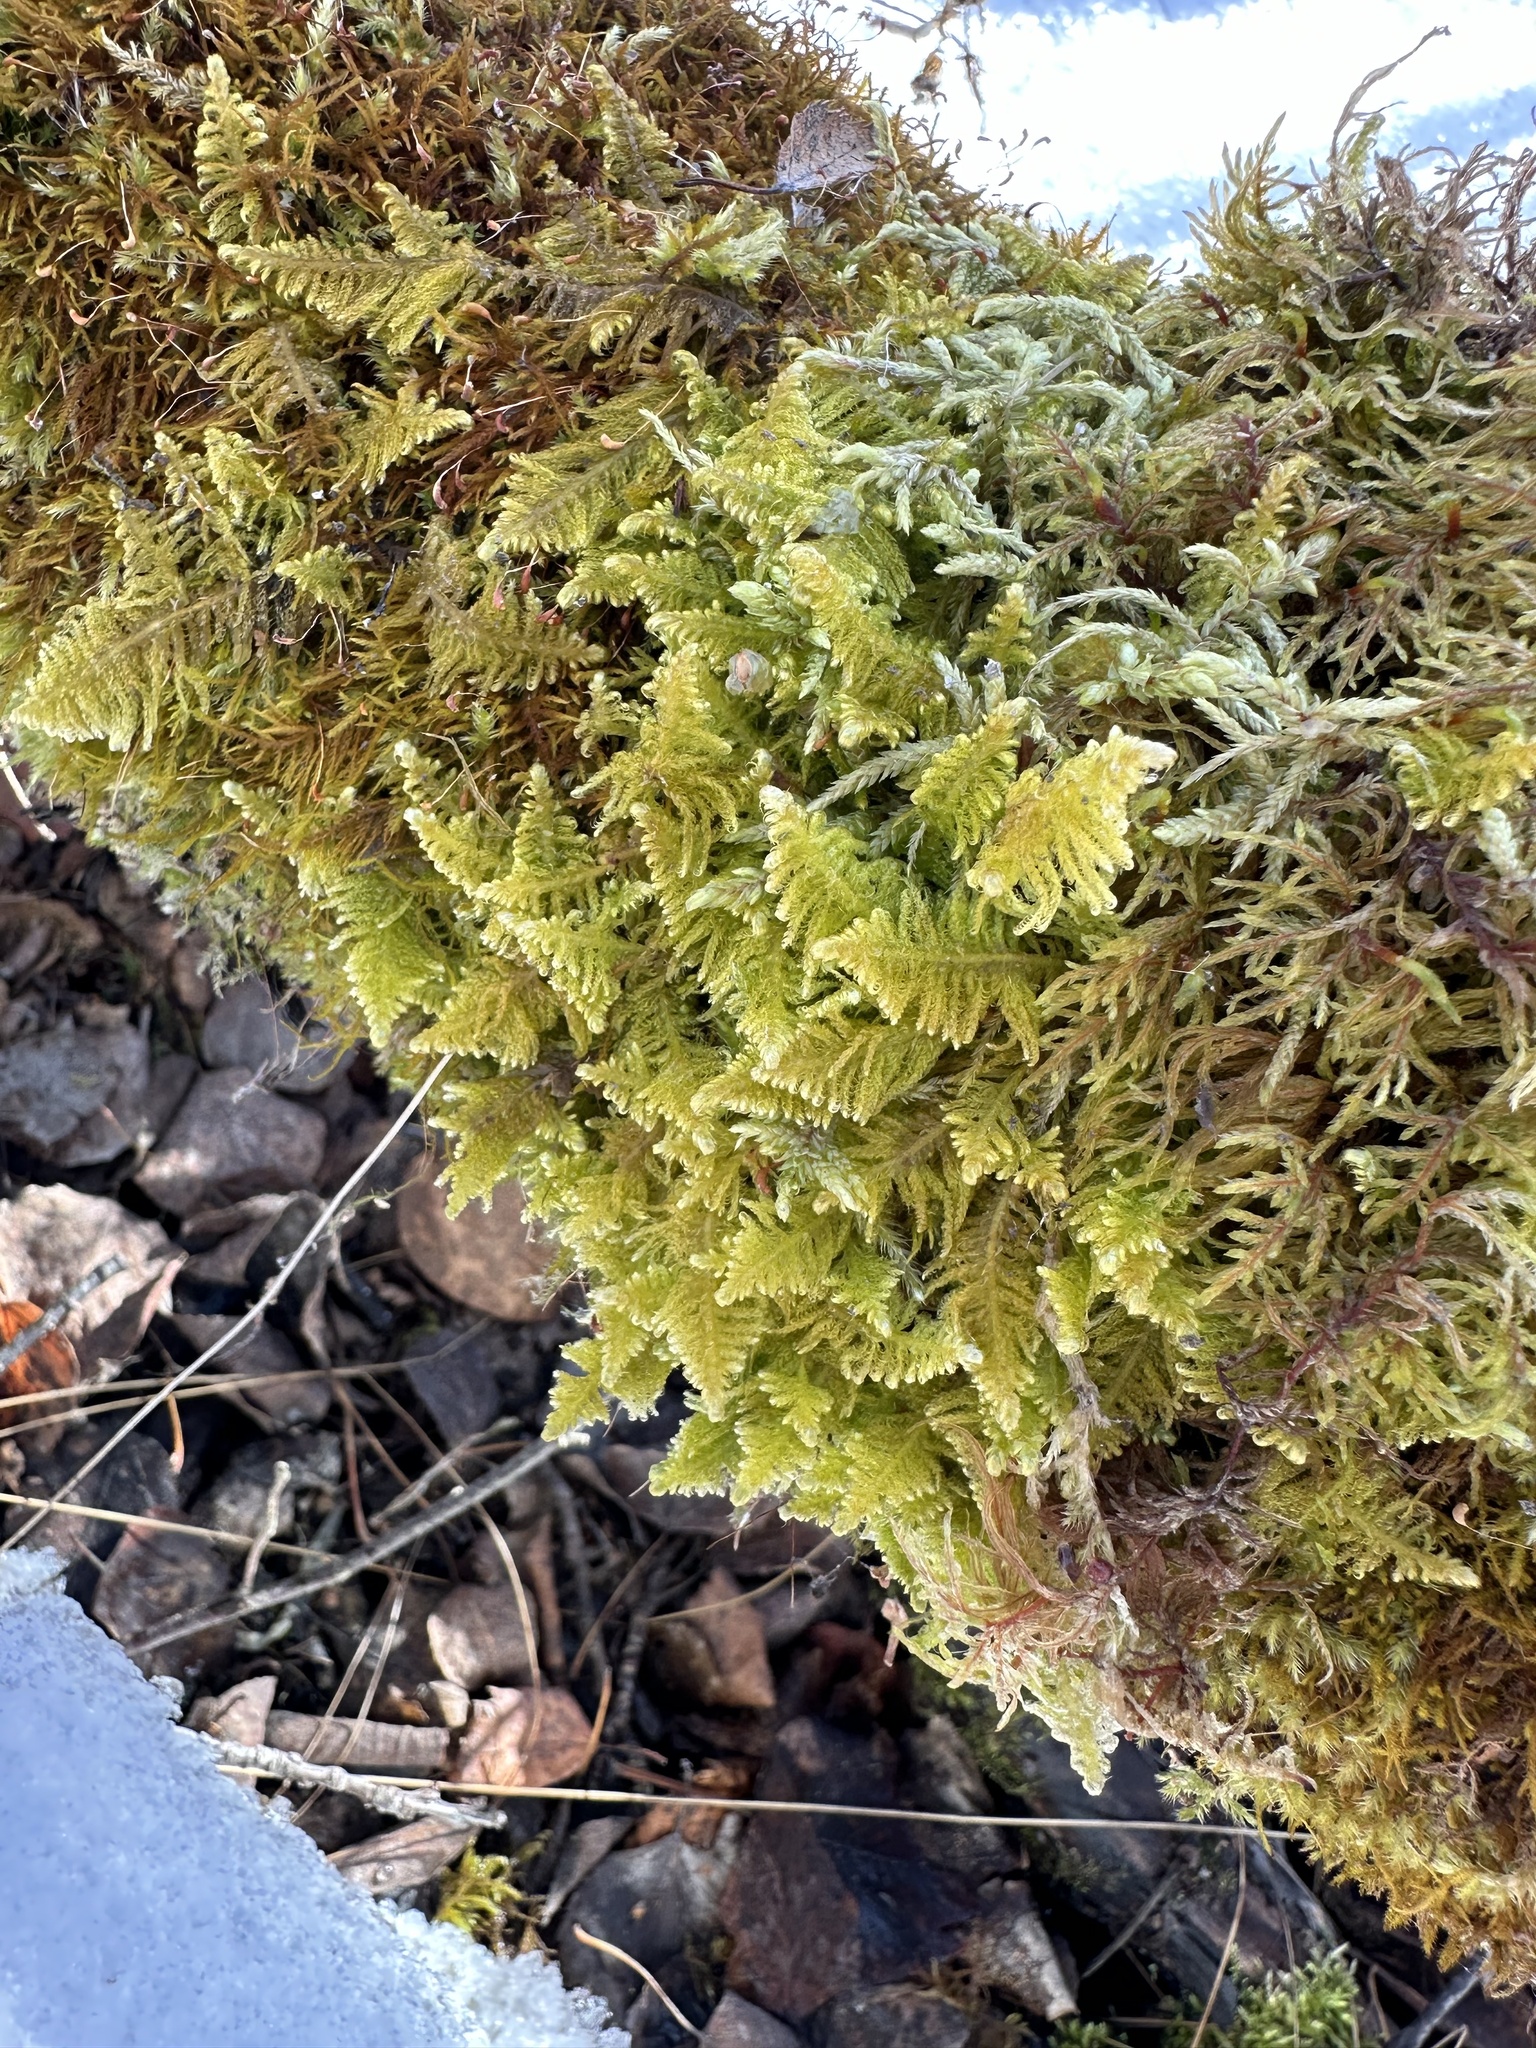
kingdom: Plantae
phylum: Bryophyta
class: Bryopsida
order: Hypnales
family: Pylaisiaceae
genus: Ptilium
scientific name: Ptilium crista-castrensis
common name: Knight's plume moss
